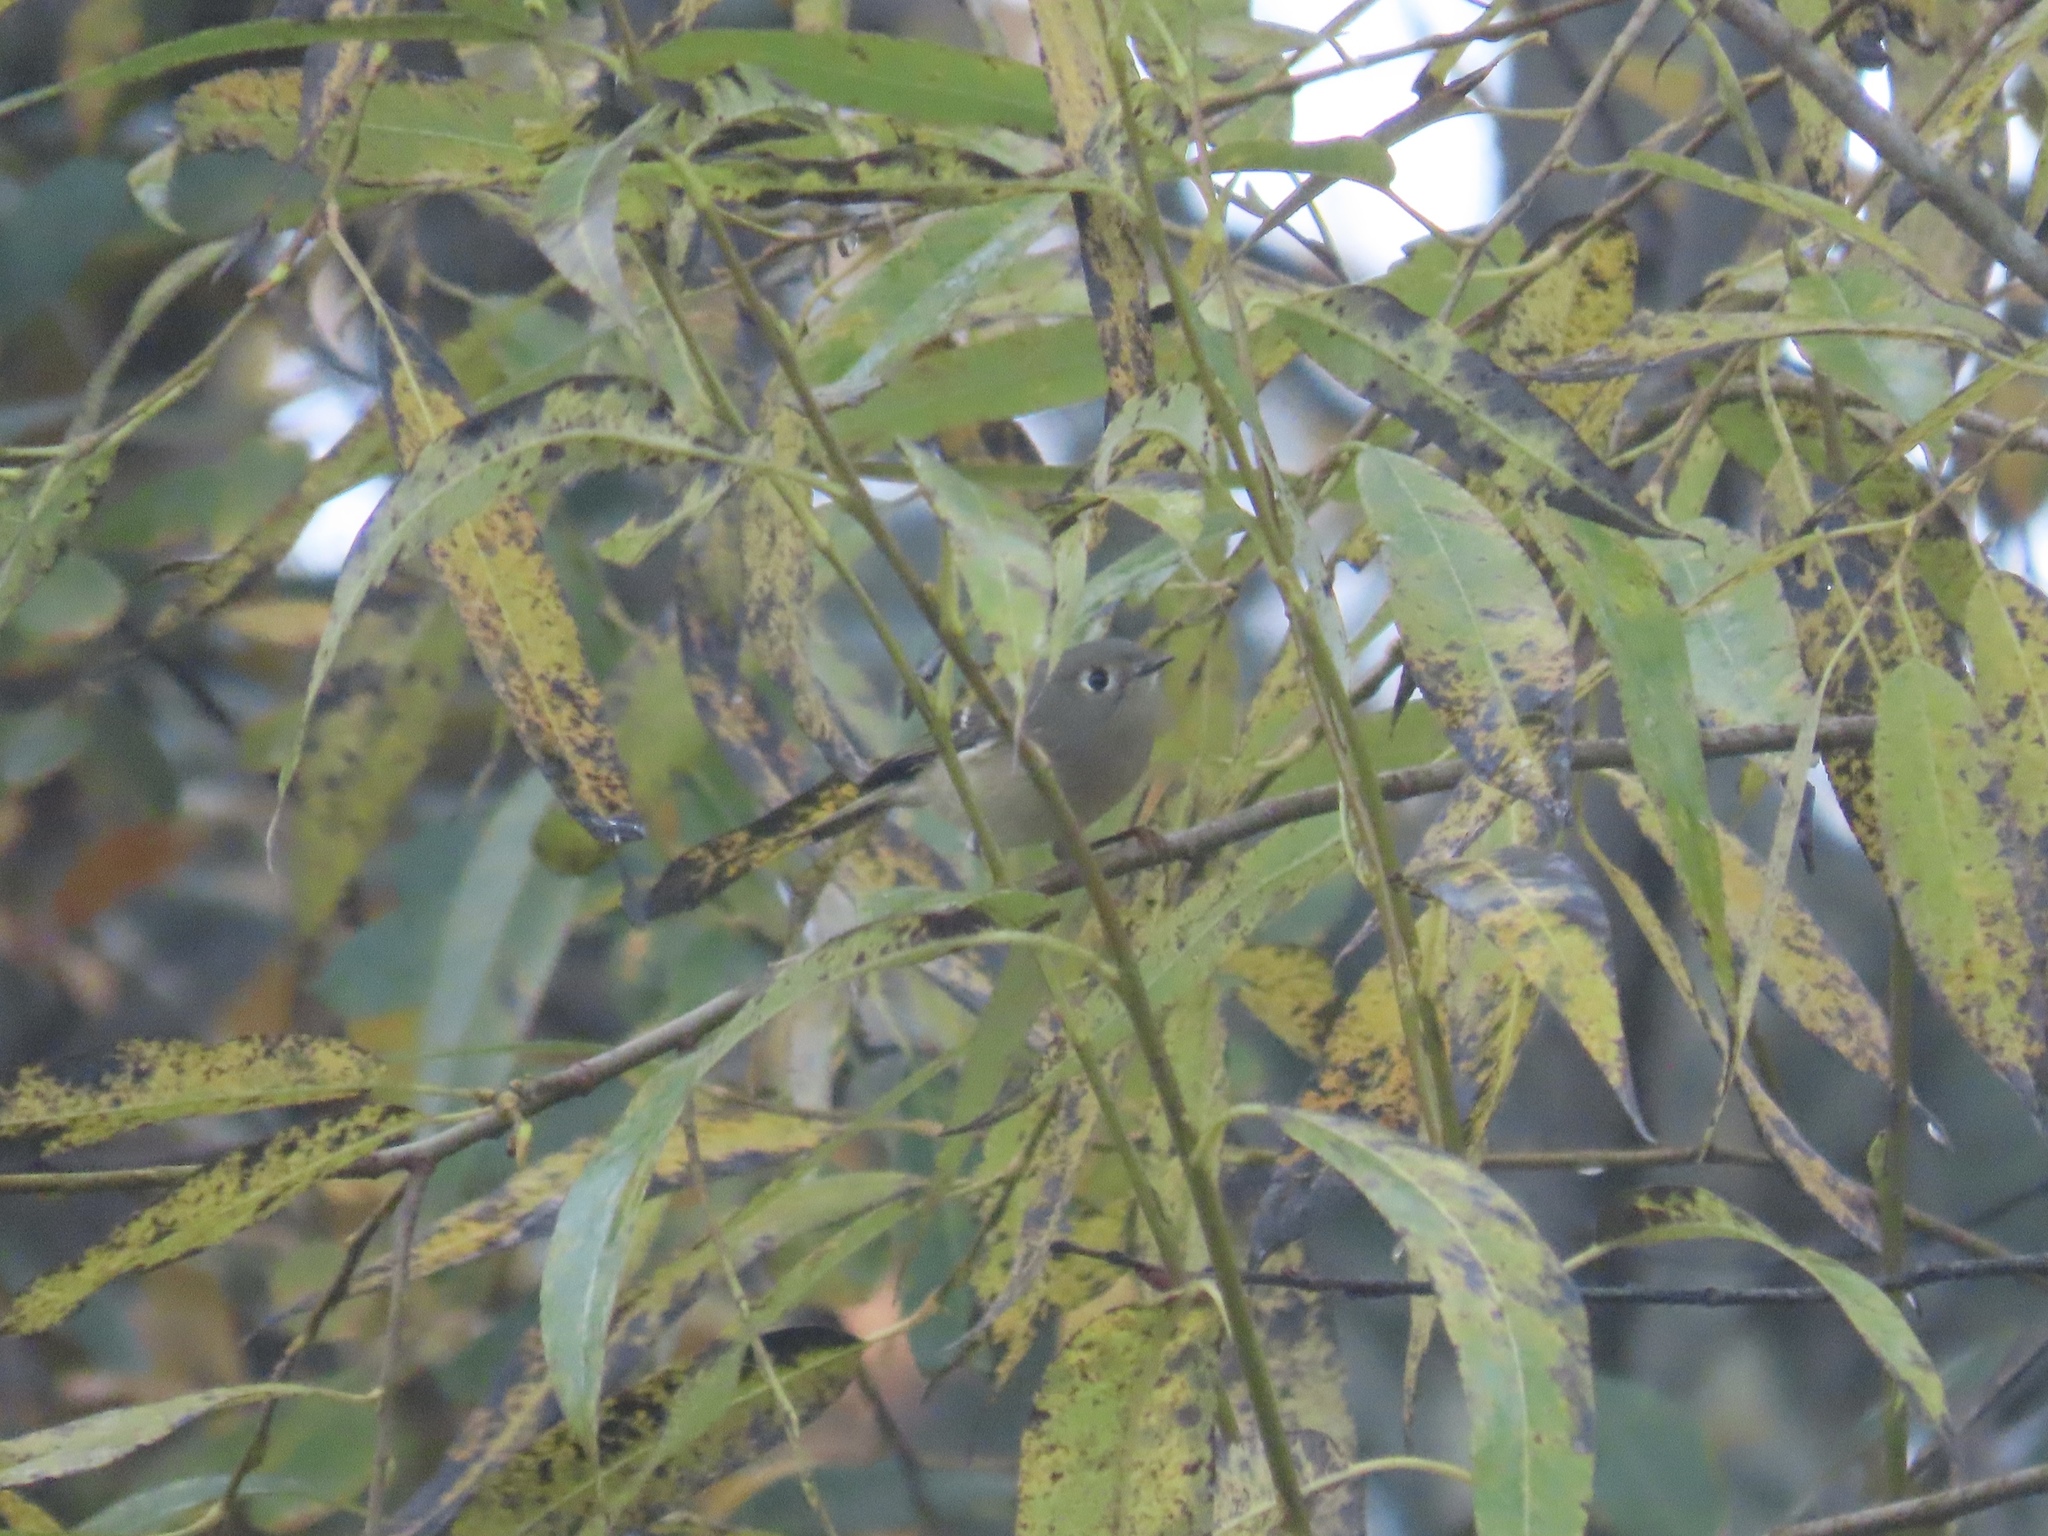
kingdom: Animalia
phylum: Chordata
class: Aves
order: Passeriformes
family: Regulidae
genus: Regulus
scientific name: Regulus calendula
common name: Ruby-crowned kinglet
